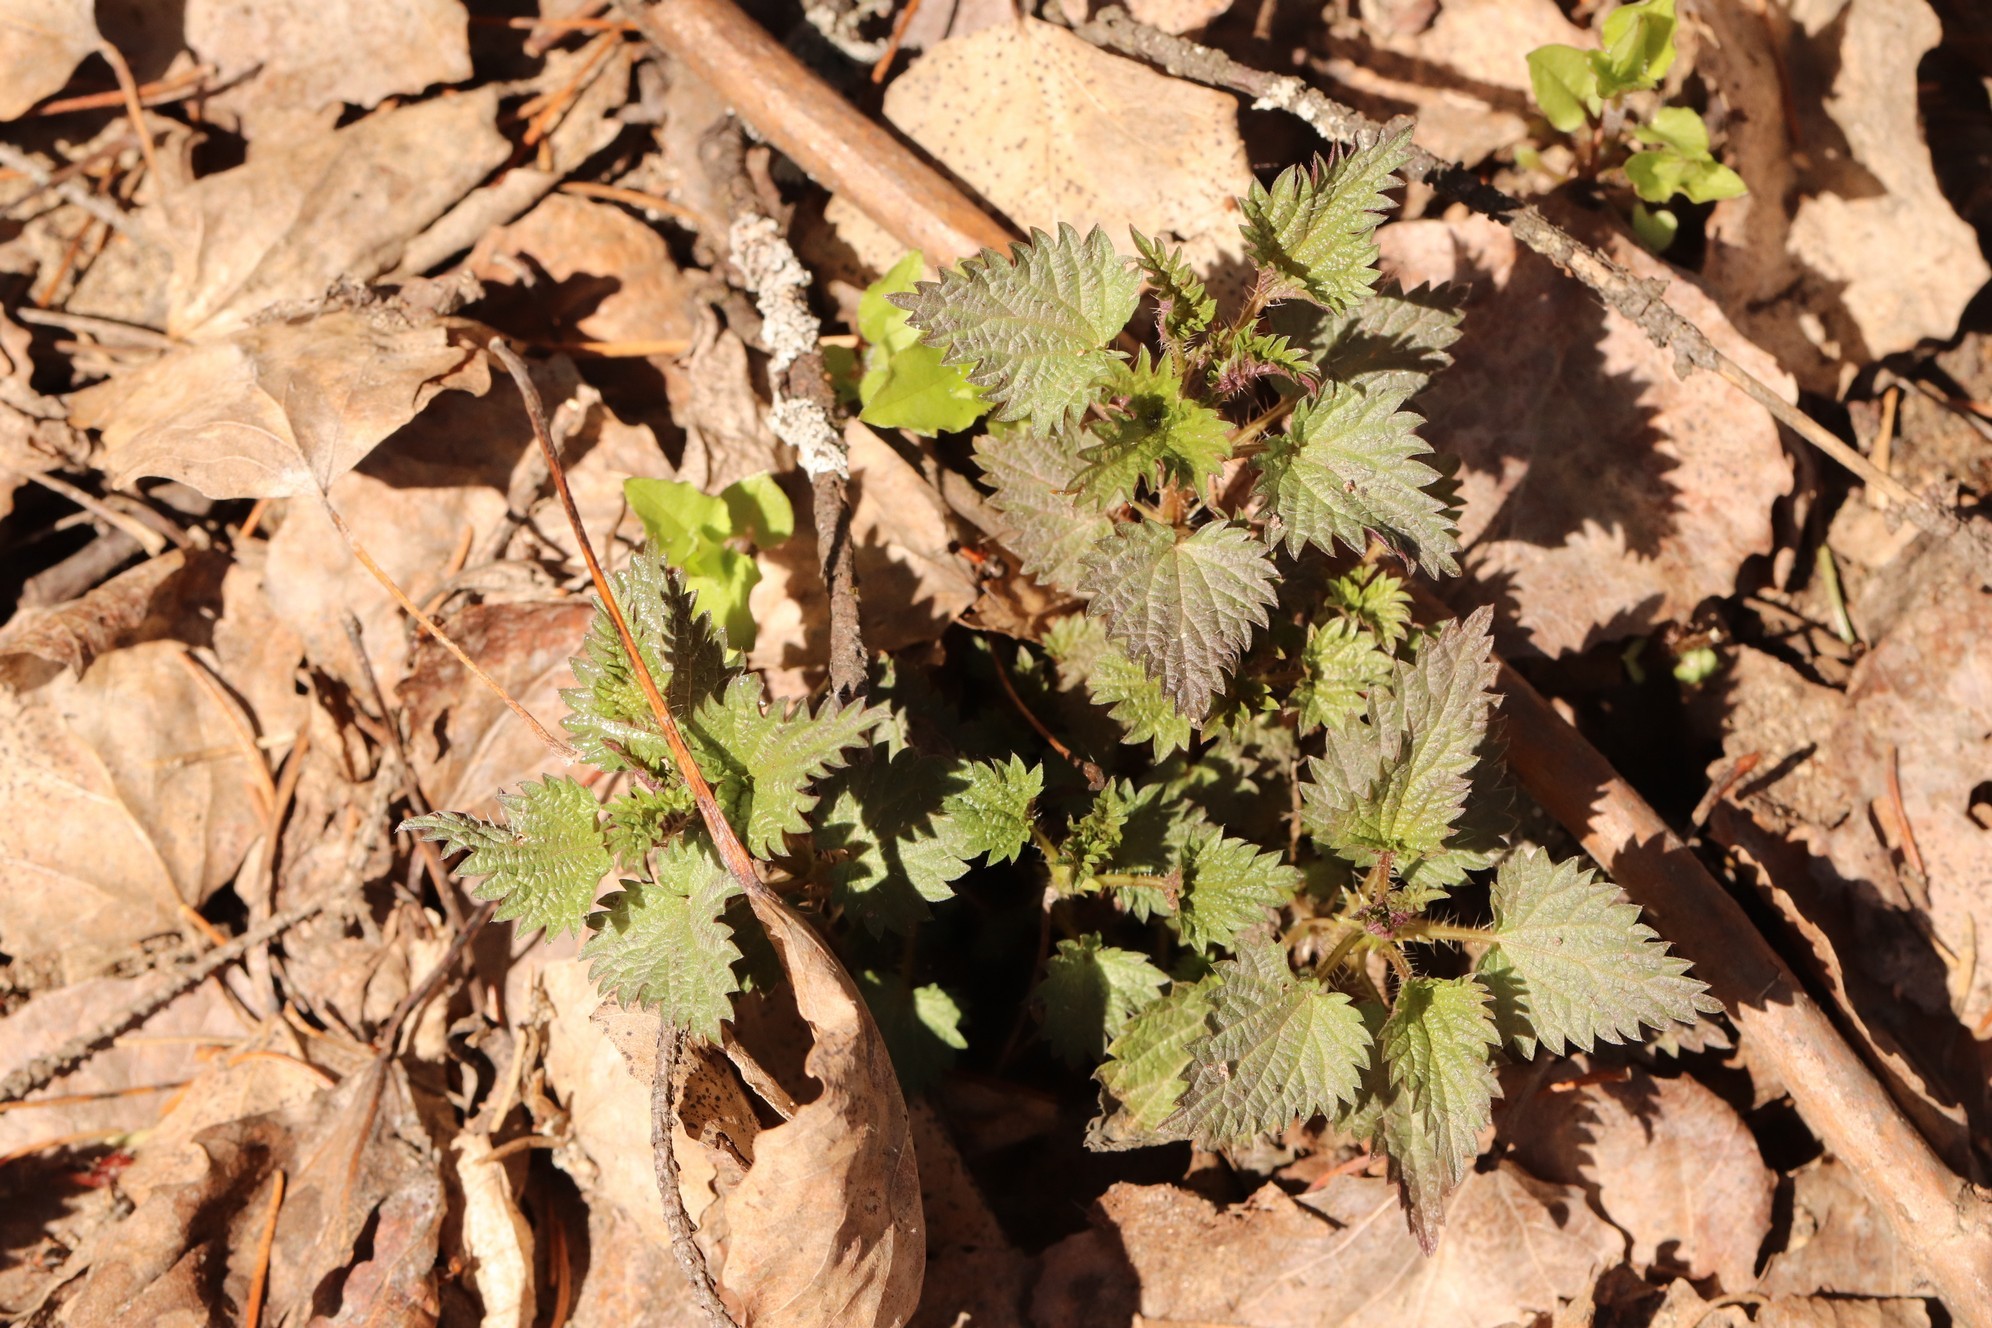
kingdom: Plantae
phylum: Tracheophyta
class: Magnoliopsida
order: Rosales
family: Urticaceae
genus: Urtica
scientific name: Urtica dioica
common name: Common nettle
